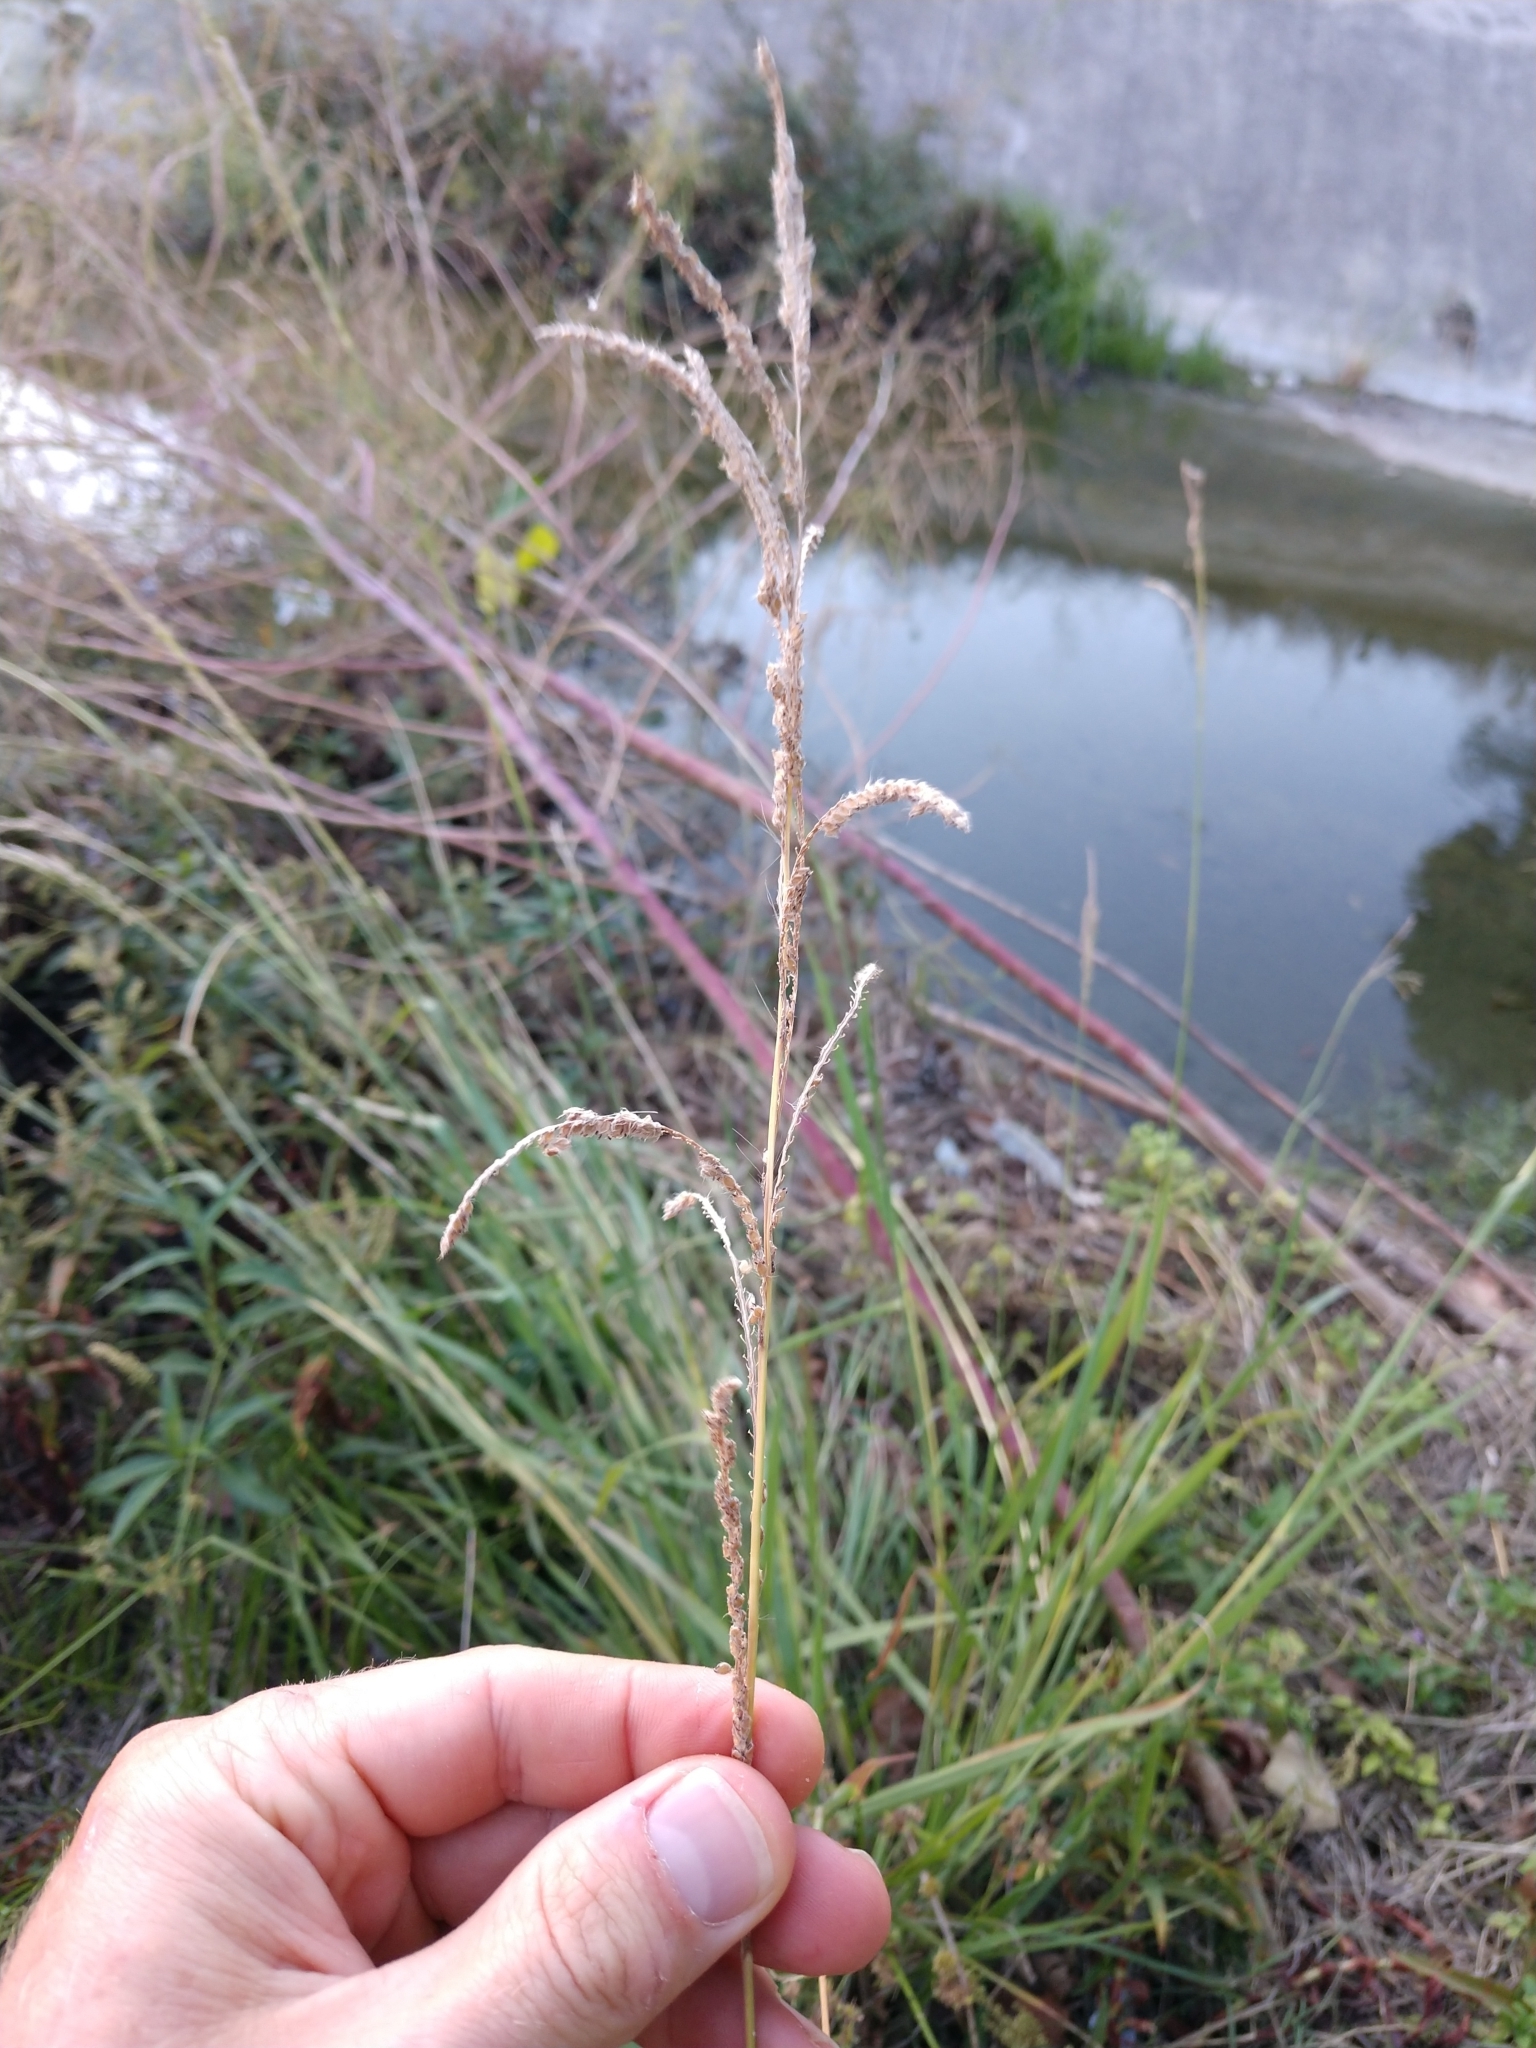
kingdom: Plantae
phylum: Tracheophyta
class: Liliopsida
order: Poales
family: Poaceae
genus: Paspalum
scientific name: Paspalum urvillei
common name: Vasey's grass
